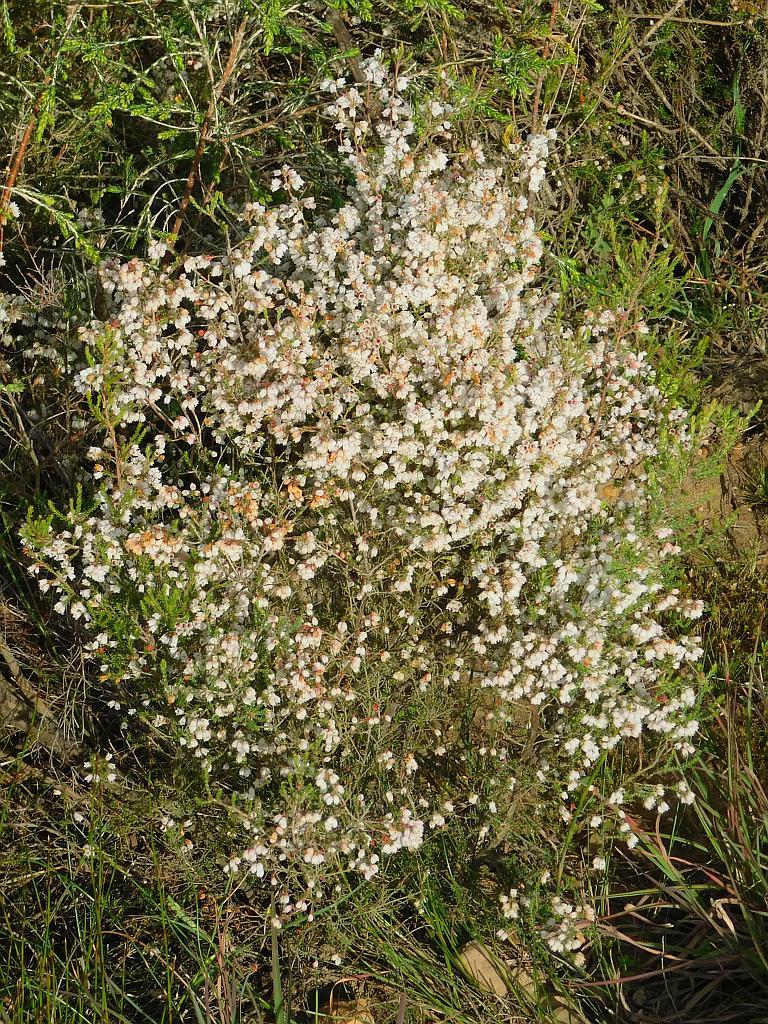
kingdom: Plantae
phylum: Tracheophyta
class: Magnoliopsida
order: Ericales
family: Ericaceae
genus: Erica
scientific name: Erica quadrangularis
